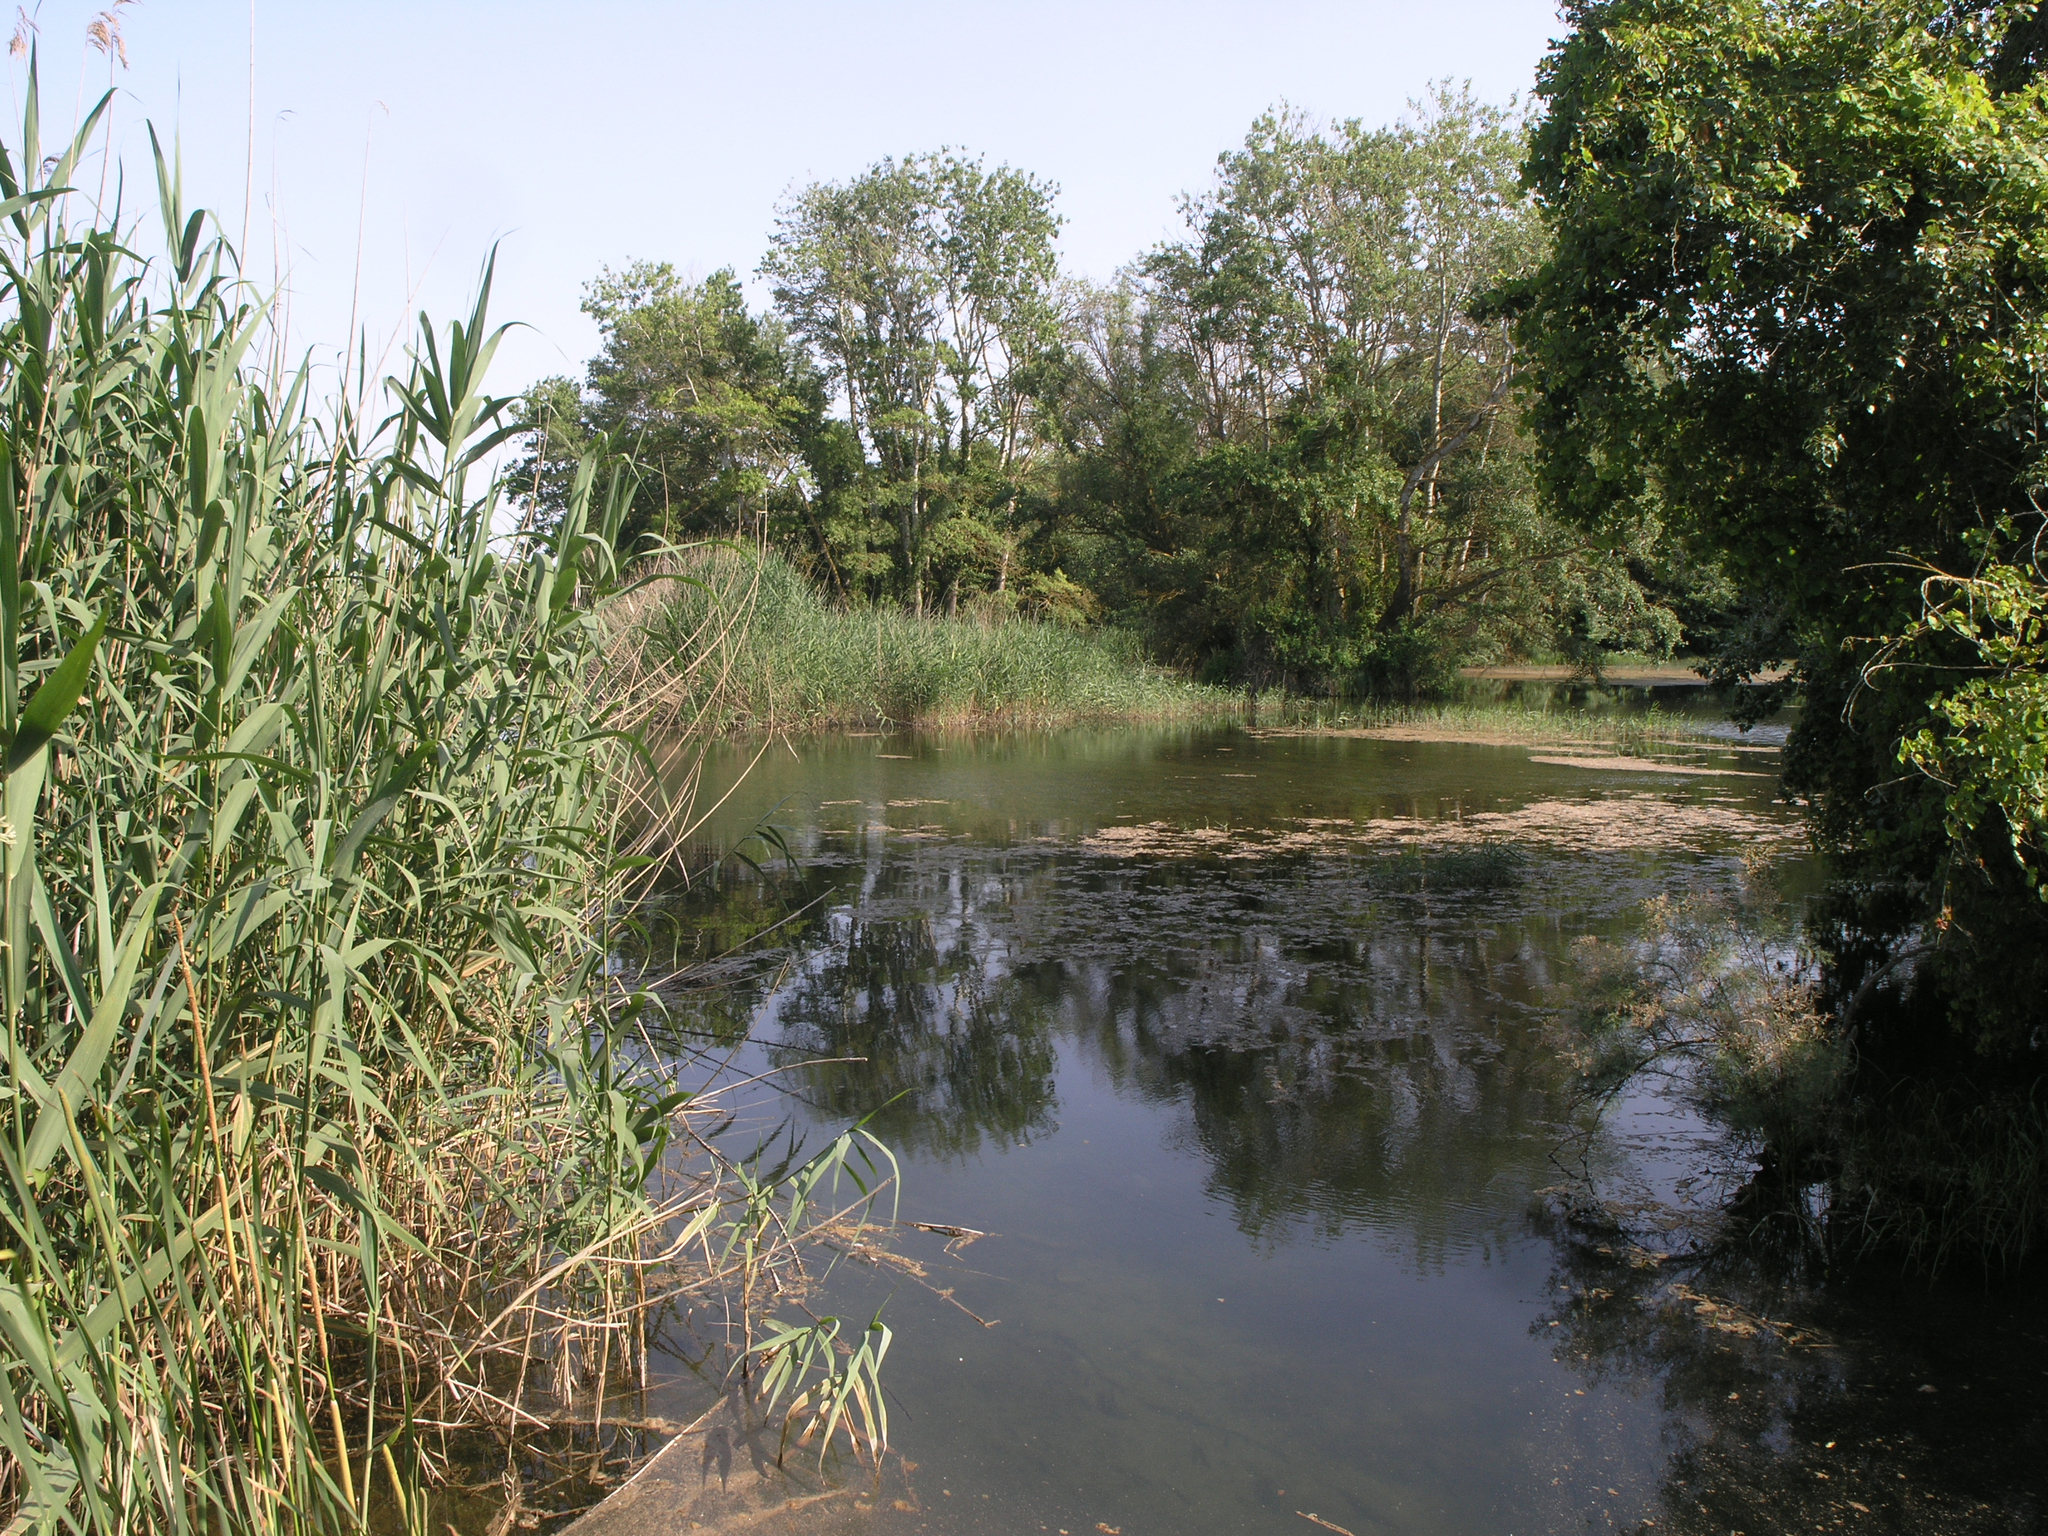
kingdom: Plantae
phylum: Tracheophyta
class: Liliopsida
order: Poales
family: Poaceae
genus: Phragmites
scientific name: Phragmites australis
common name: Common reed
